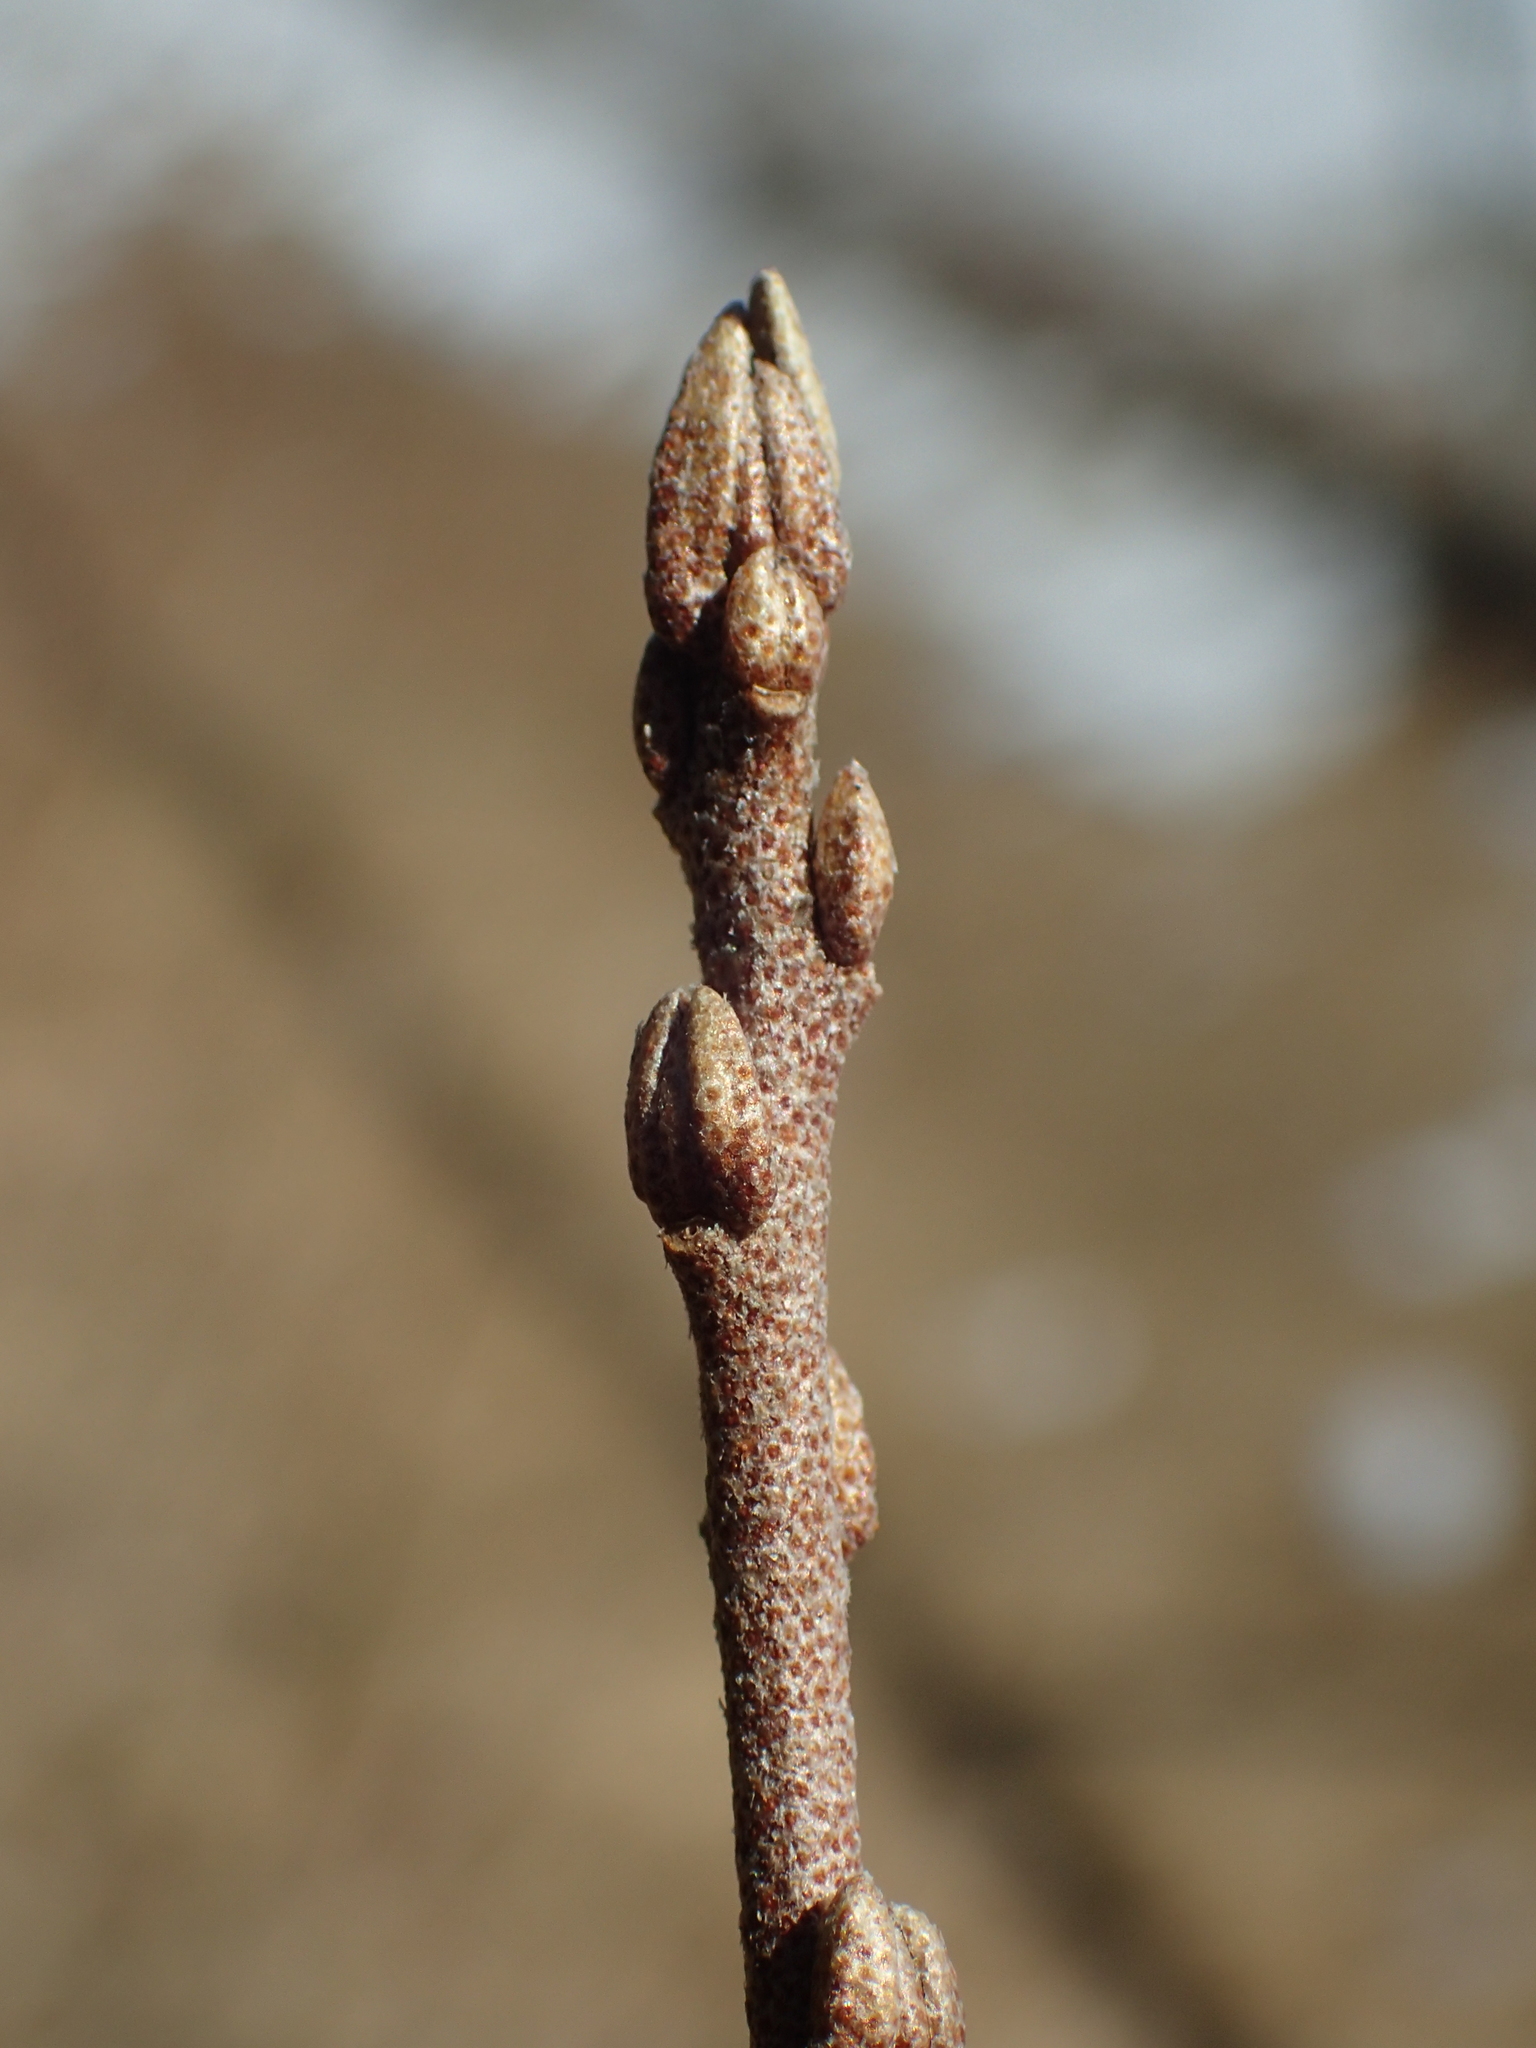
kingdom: Plantae
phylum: Tracheophyta
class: Magnoliopsida
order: Rosales
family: Elaeagnaceae
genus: Elaeagnus
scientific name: Elaeagnus umbellata
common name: Autumn olive
